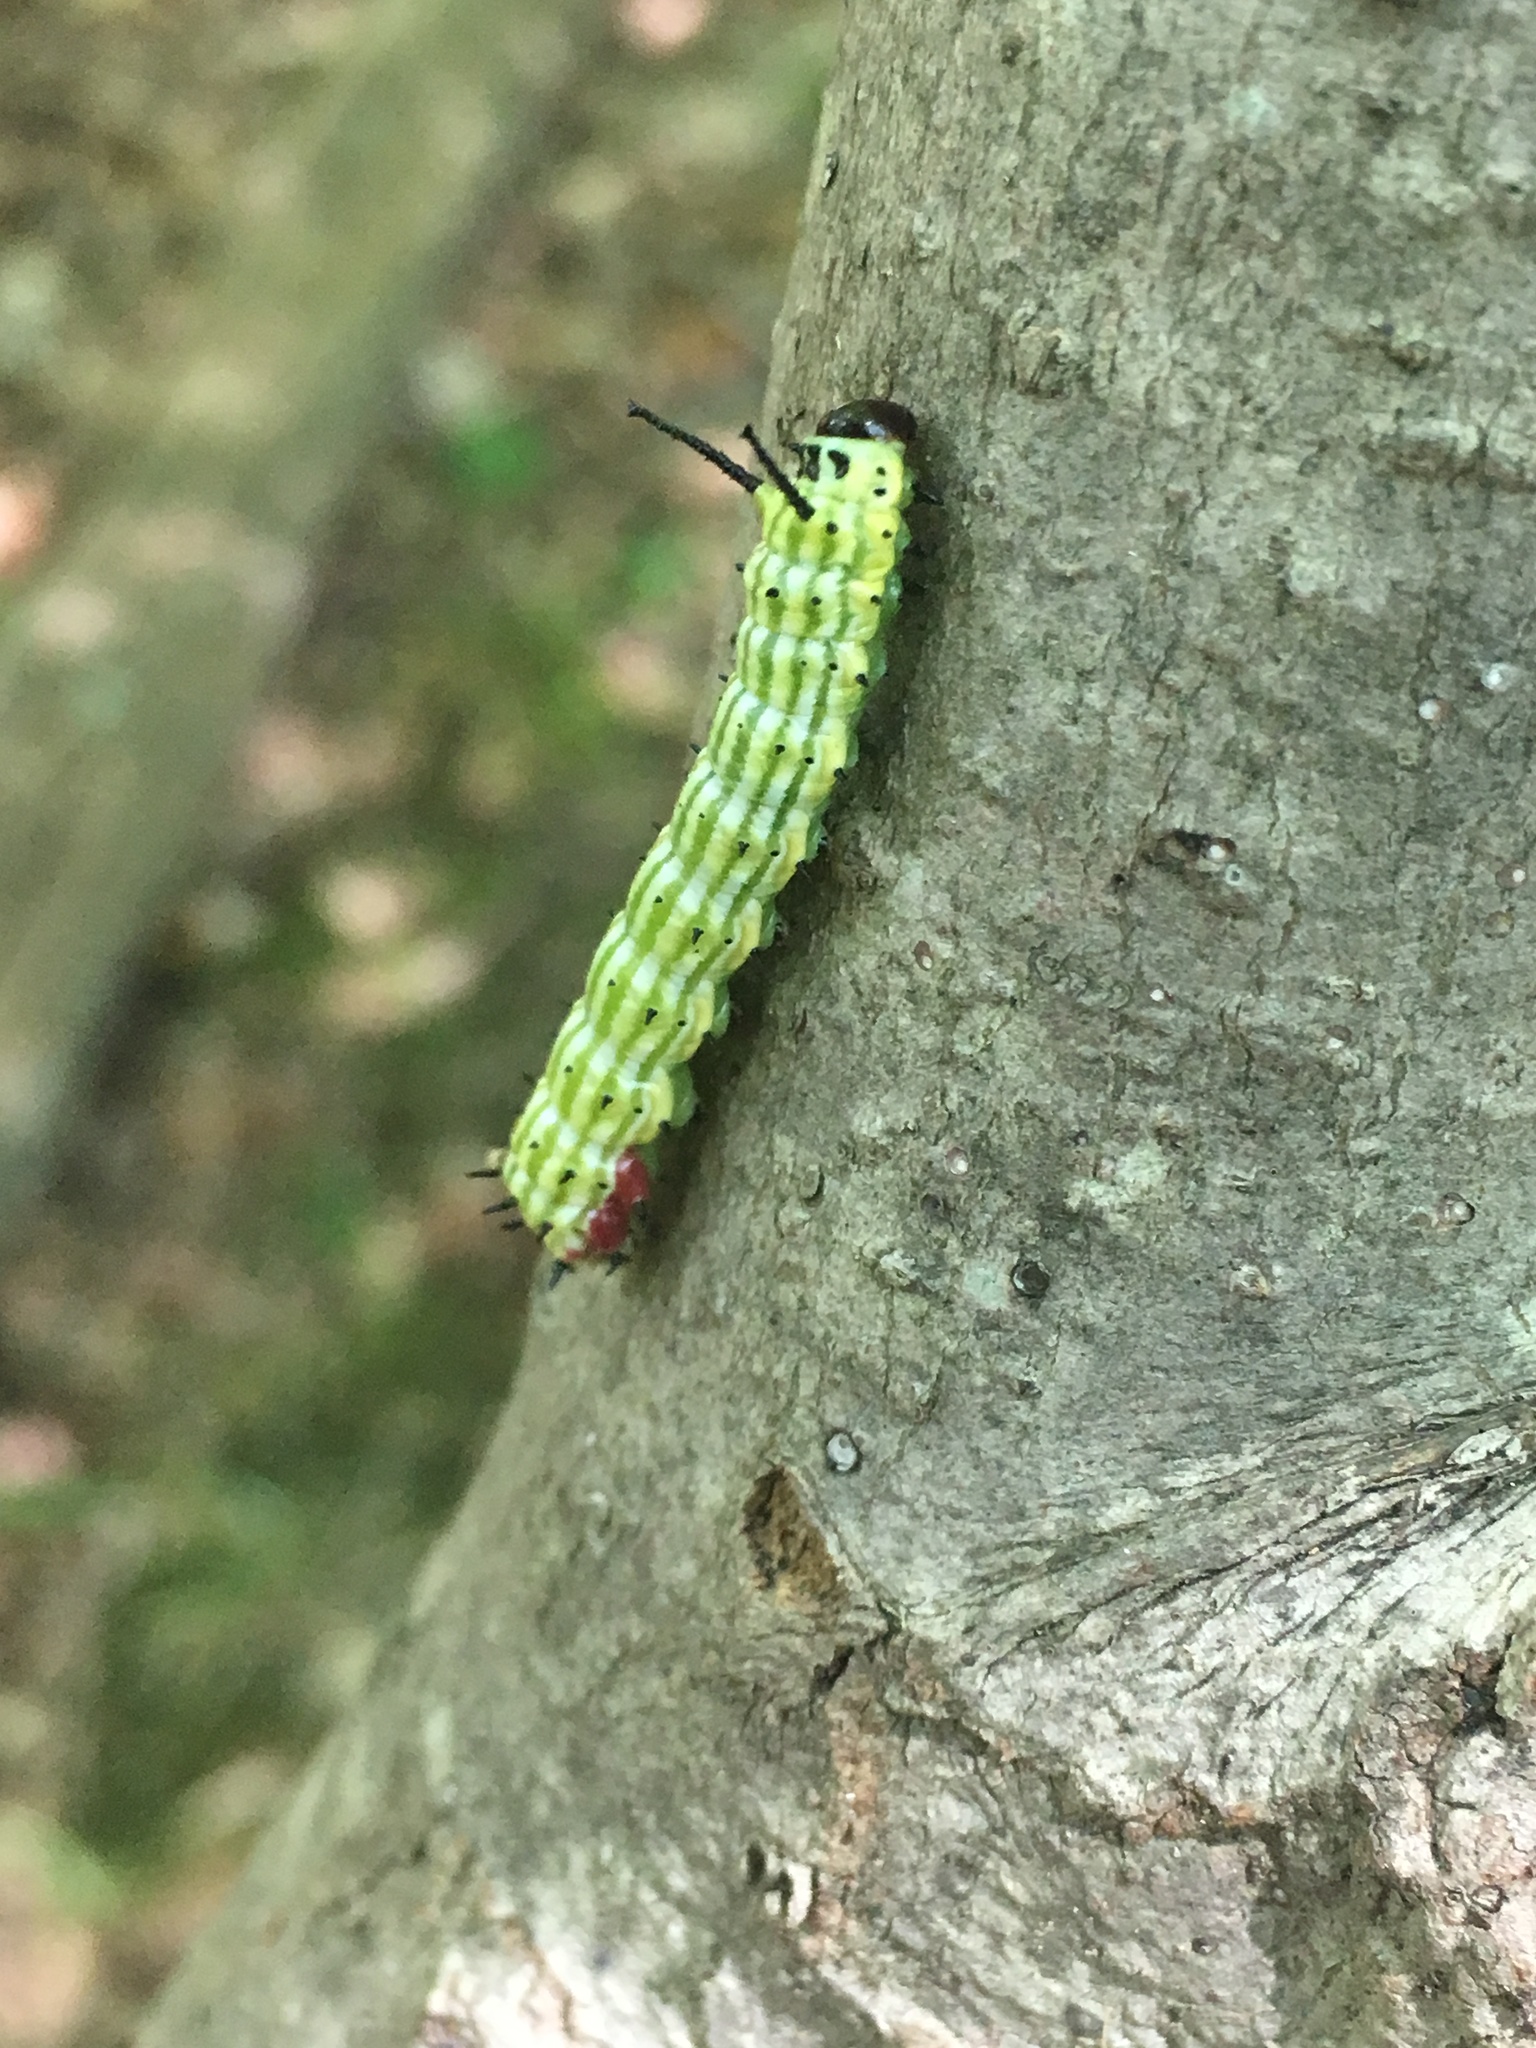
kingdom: Animalia
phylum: Arthropoda
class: Insecta
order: Lepidoptera
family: Saturniidae
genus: Dryocampa
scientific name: Dryocampa rubicunda
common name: Rosy maple moth
